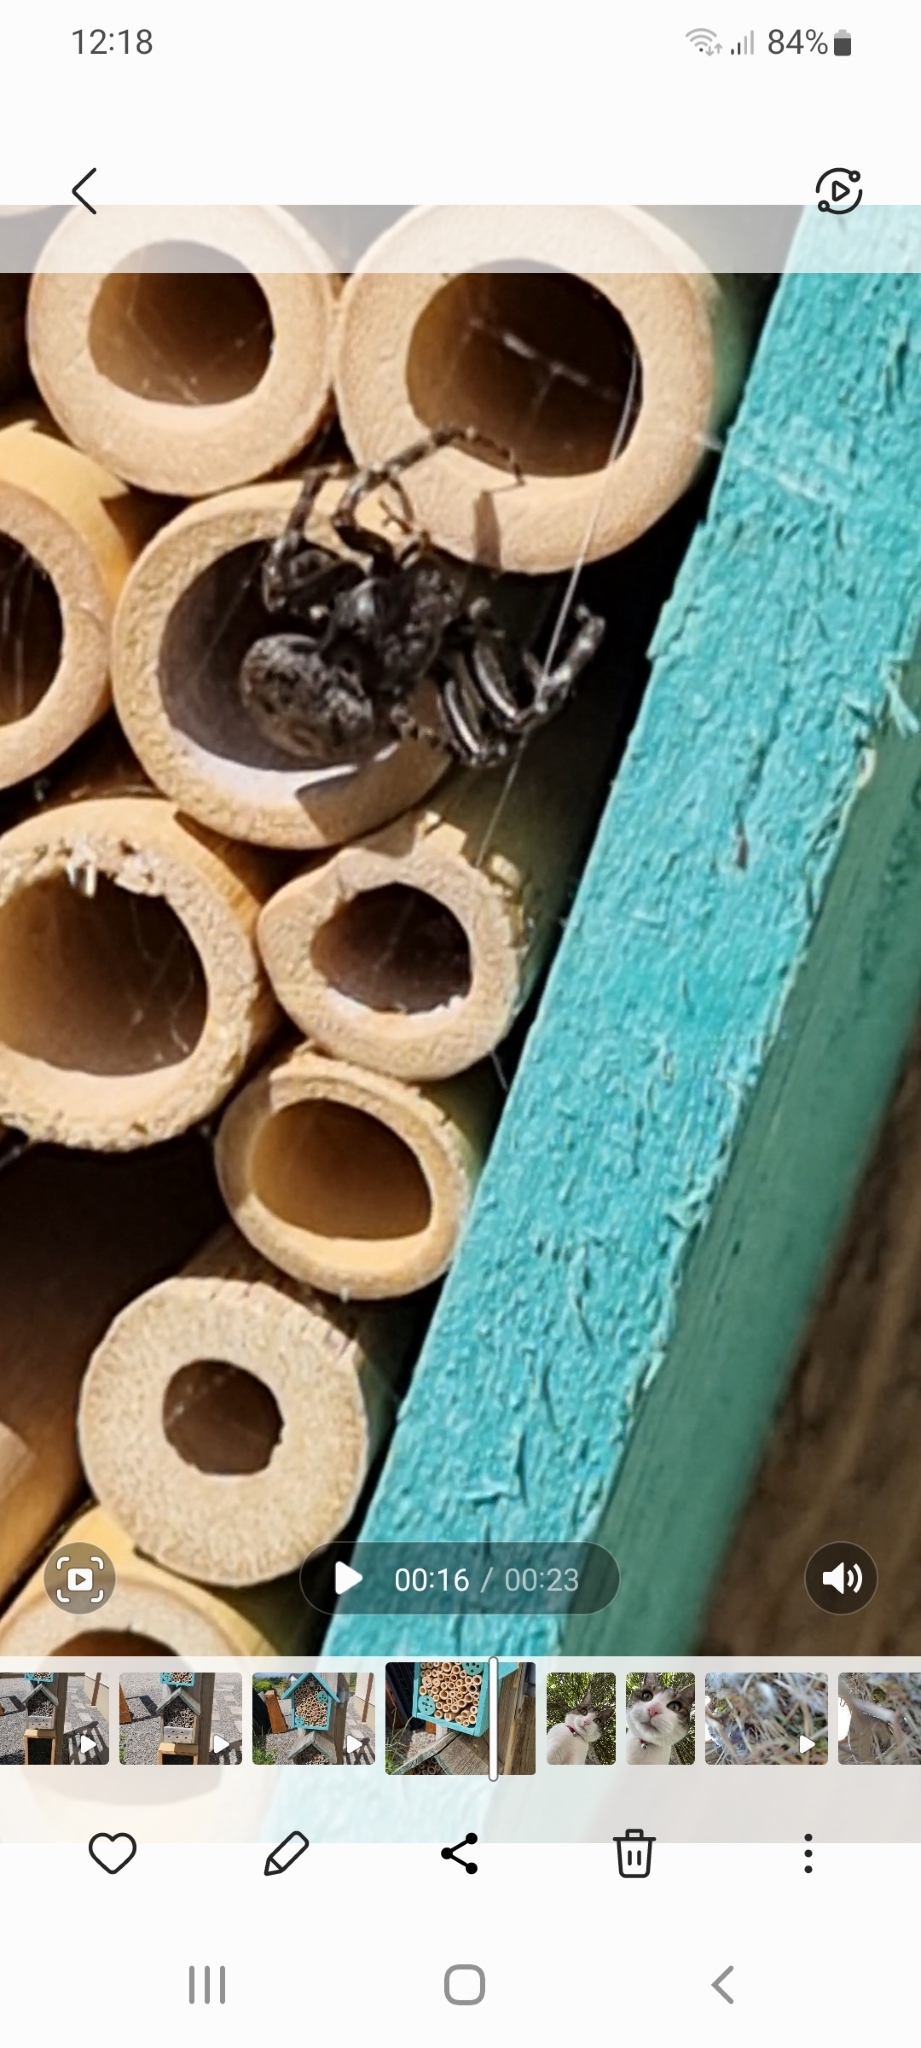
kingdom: Animalia
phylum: Arthropoda
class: Arachnida
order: Araneae
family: Araneidae
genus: Nuctenea
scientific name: Nuctenea umbratica
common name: Toad spider
